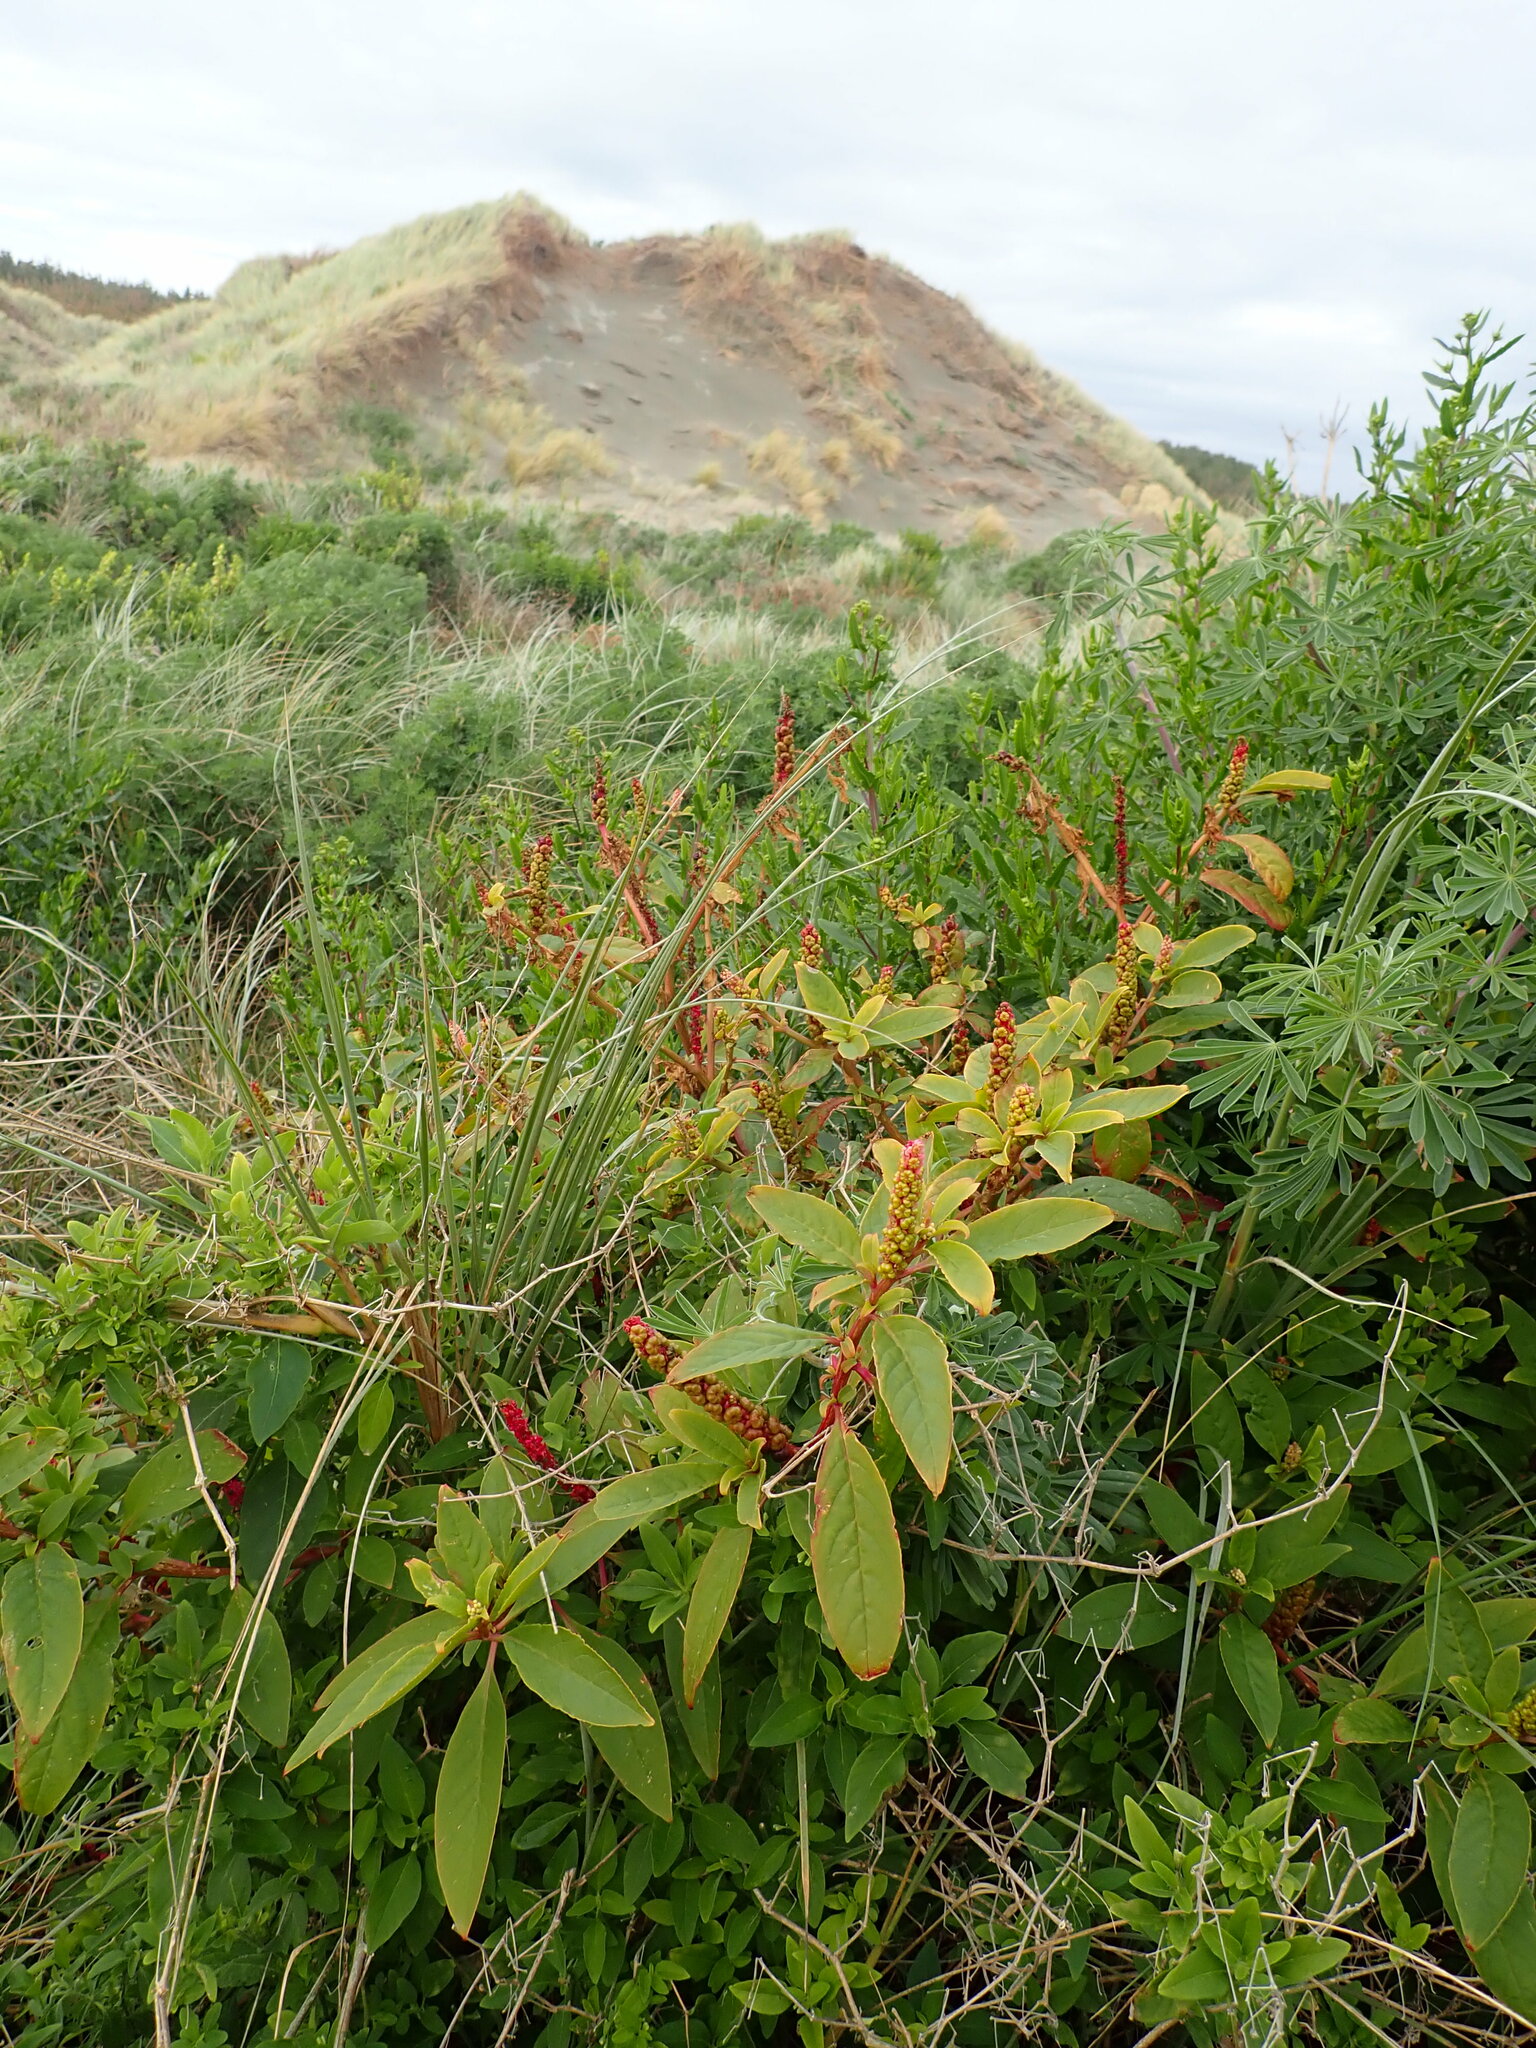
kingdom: Plantae
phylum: Tracheophyta
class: Magnoliopsida
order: Caryophyllales
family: Phytolaccaceae
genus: Phytolacca
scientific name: Phytolacca icosandra
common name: Button pokeweed
